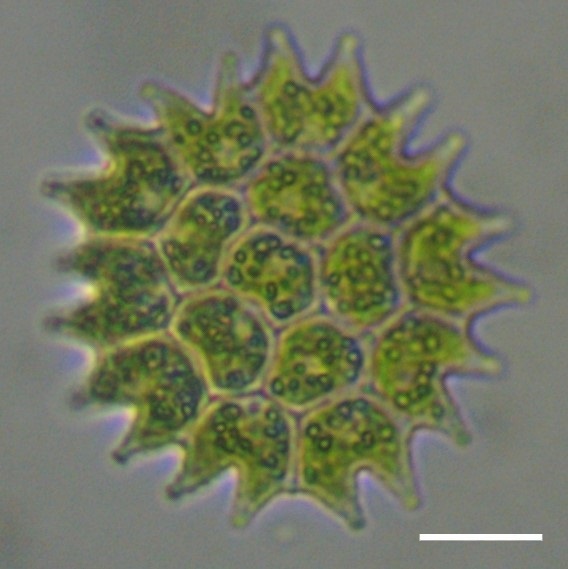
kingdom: Plantae
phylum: Chlorophyta
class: Chlorophyceae
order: Sphaeropleales
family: Hydrodictyaceae
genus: Pseudopediastrum
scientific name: Pseudopediastrum boryanum
